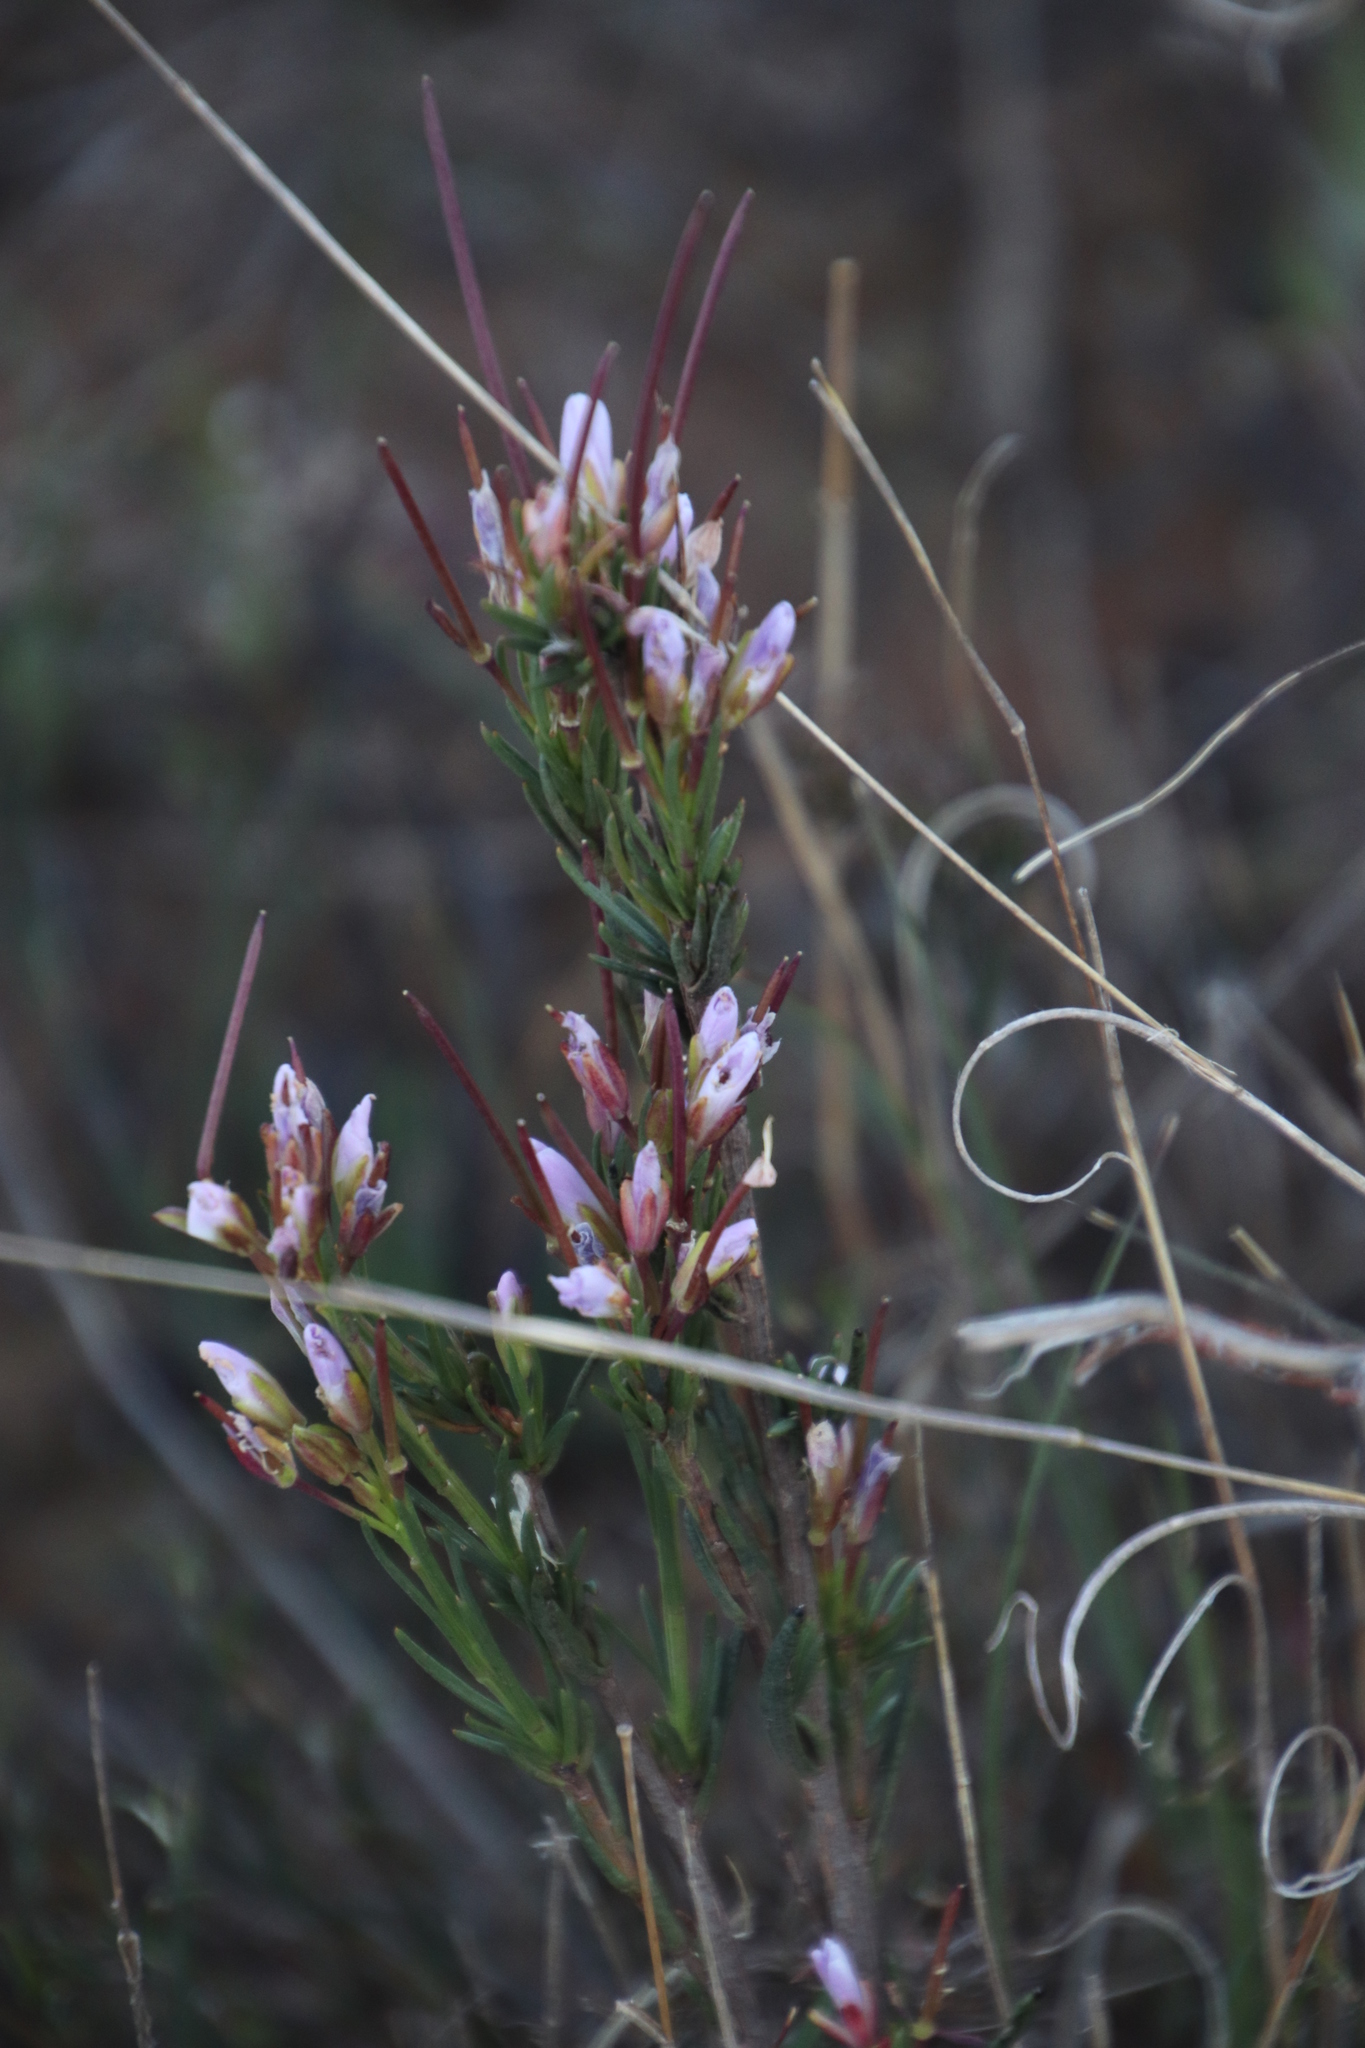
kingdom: Plantae
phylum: Tracheophyta
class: Magnoliopsida
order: Brassicales
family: Brassicaceae
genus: Heliophila
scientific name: Heliophila scoparia
